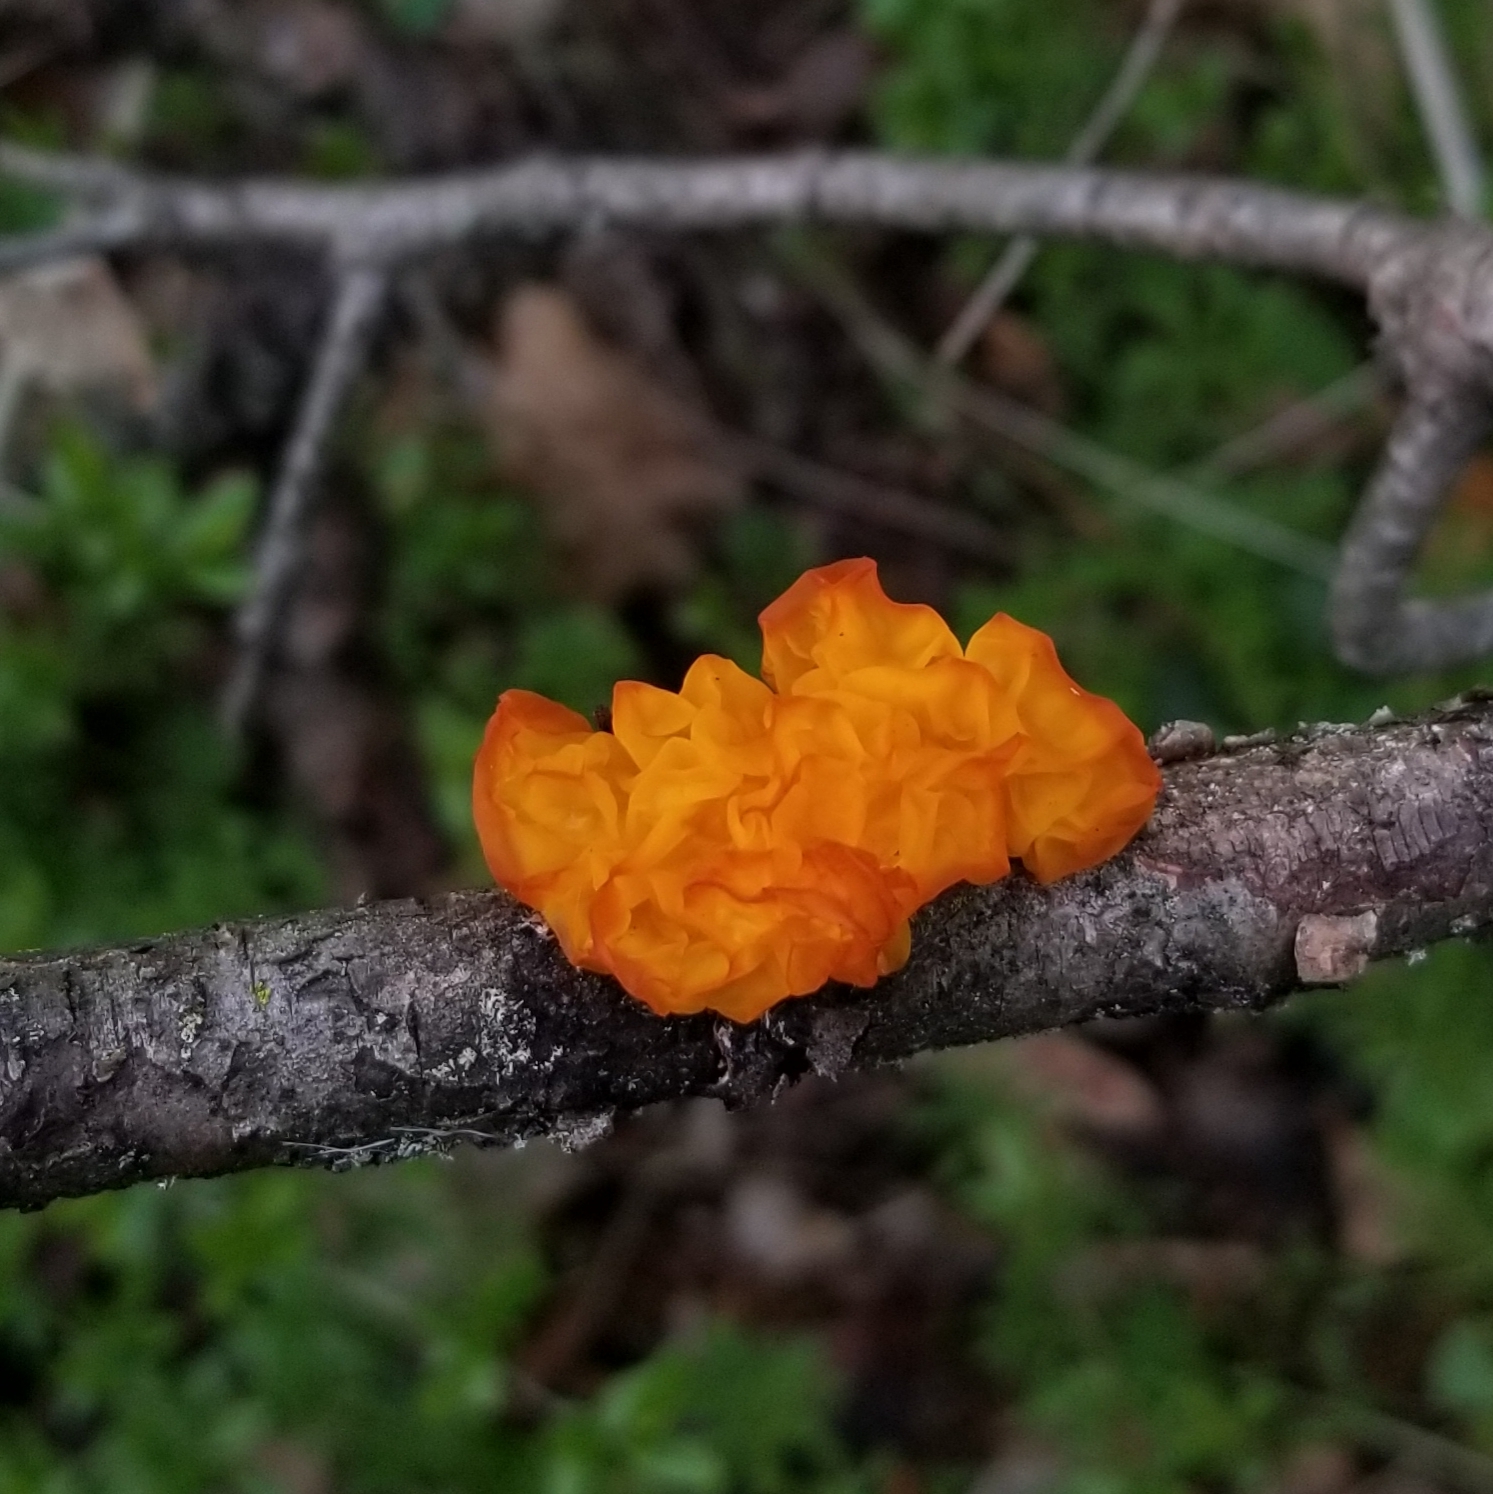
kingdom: Fungi
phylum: Basidiomycota
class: Tremellomycetes
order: Tremellales
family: Tremellaceae
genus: Tremella
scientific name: Tremella mesenterica
